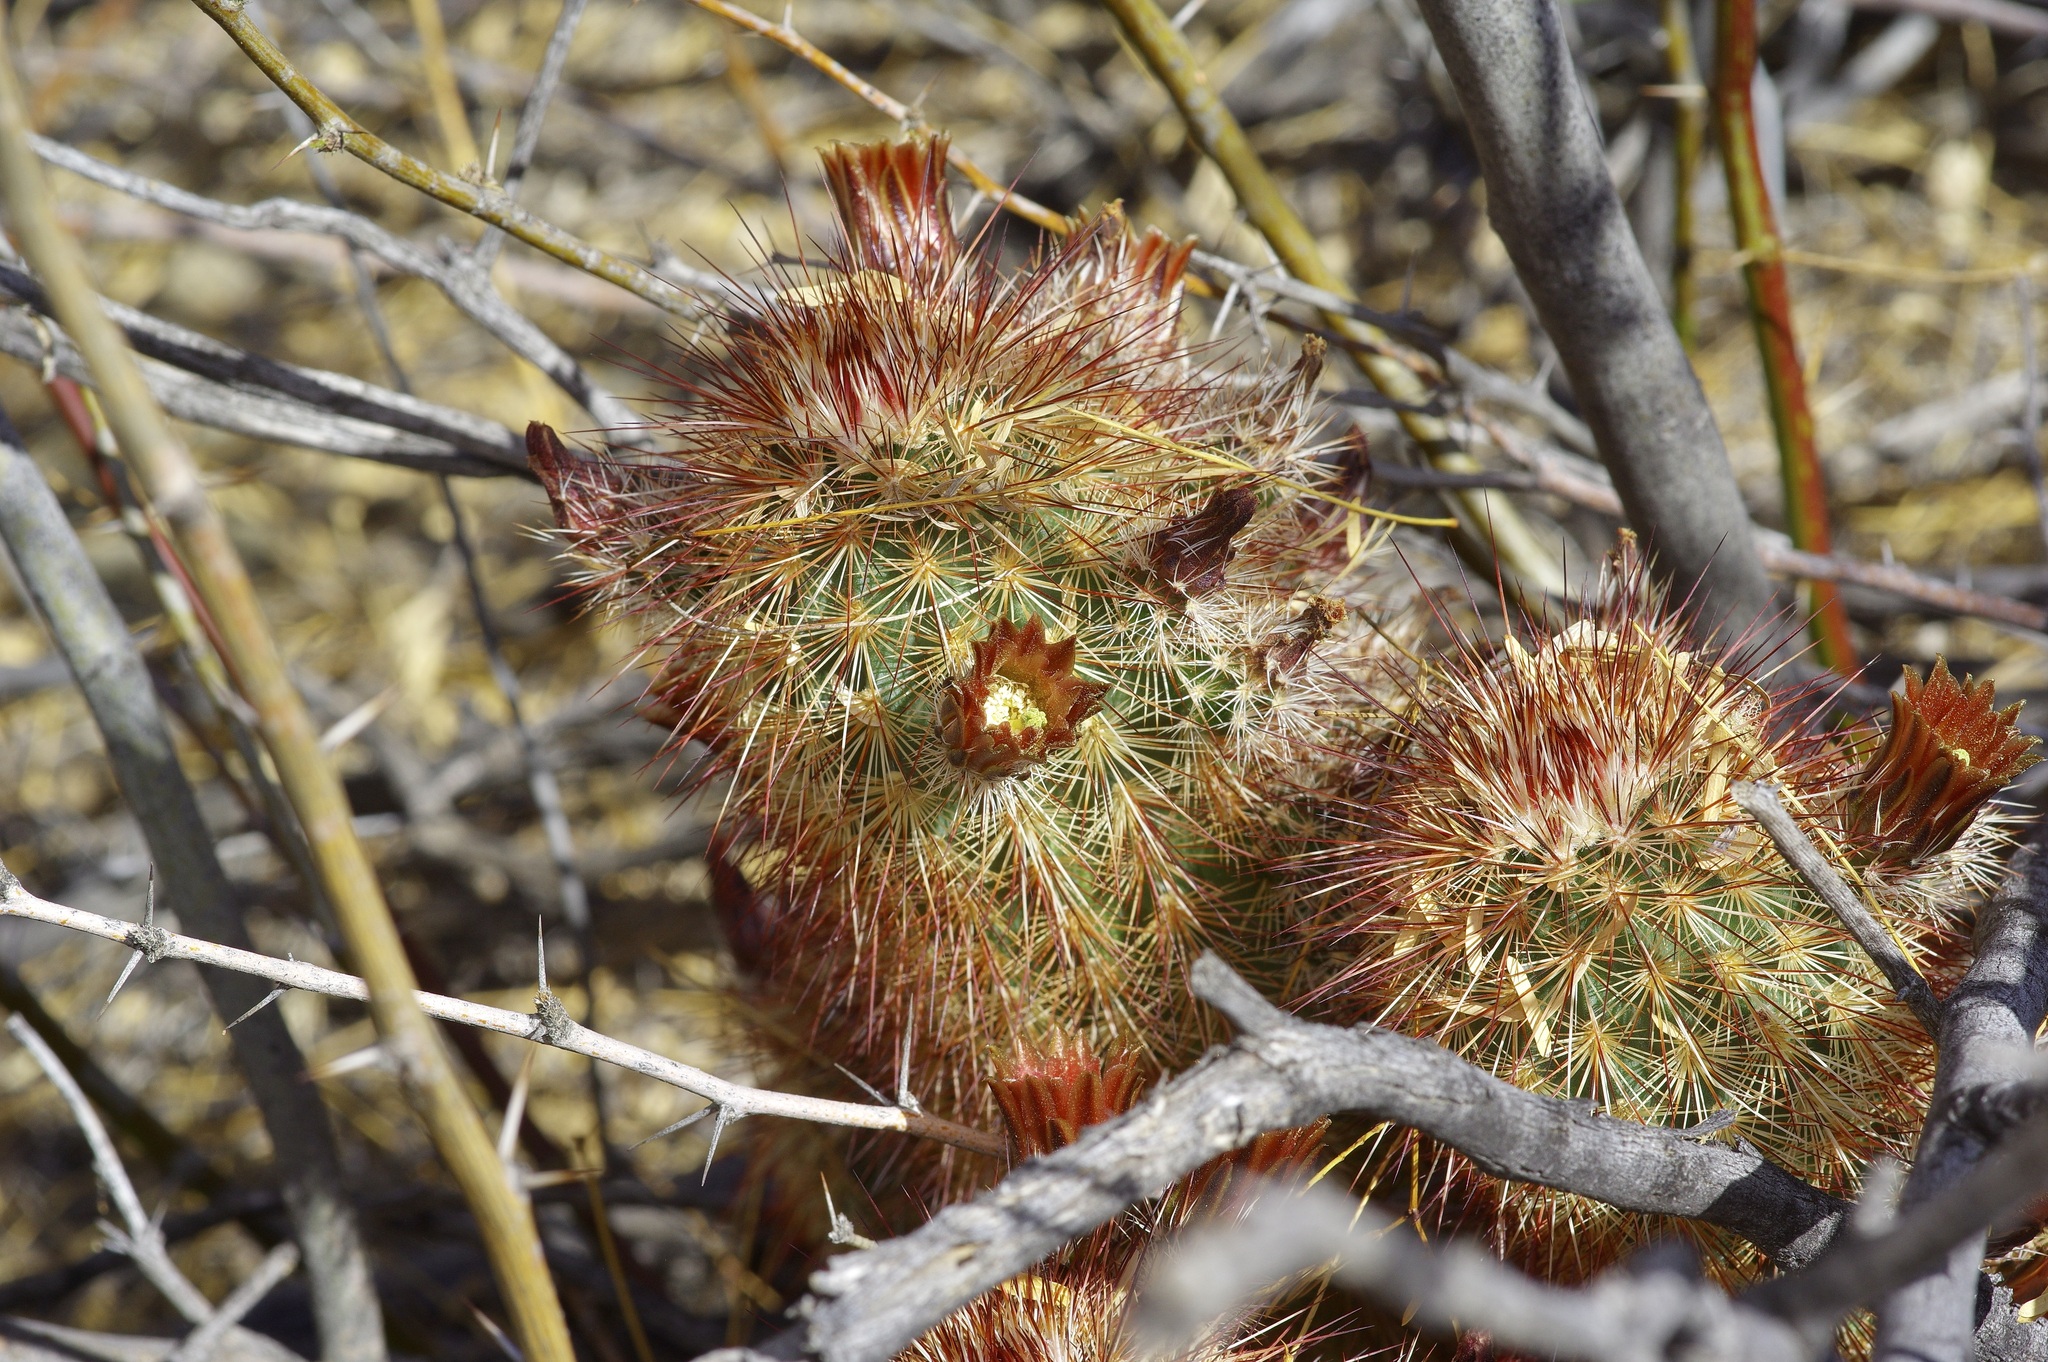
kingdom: Plantae
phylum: Tracheophyta
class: Magnoliopsida
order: Caryophyllales
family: Cactaceae
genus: Echinocereus
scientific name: Echinocereus russanthus
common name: Brownspine hedgehog cactus
